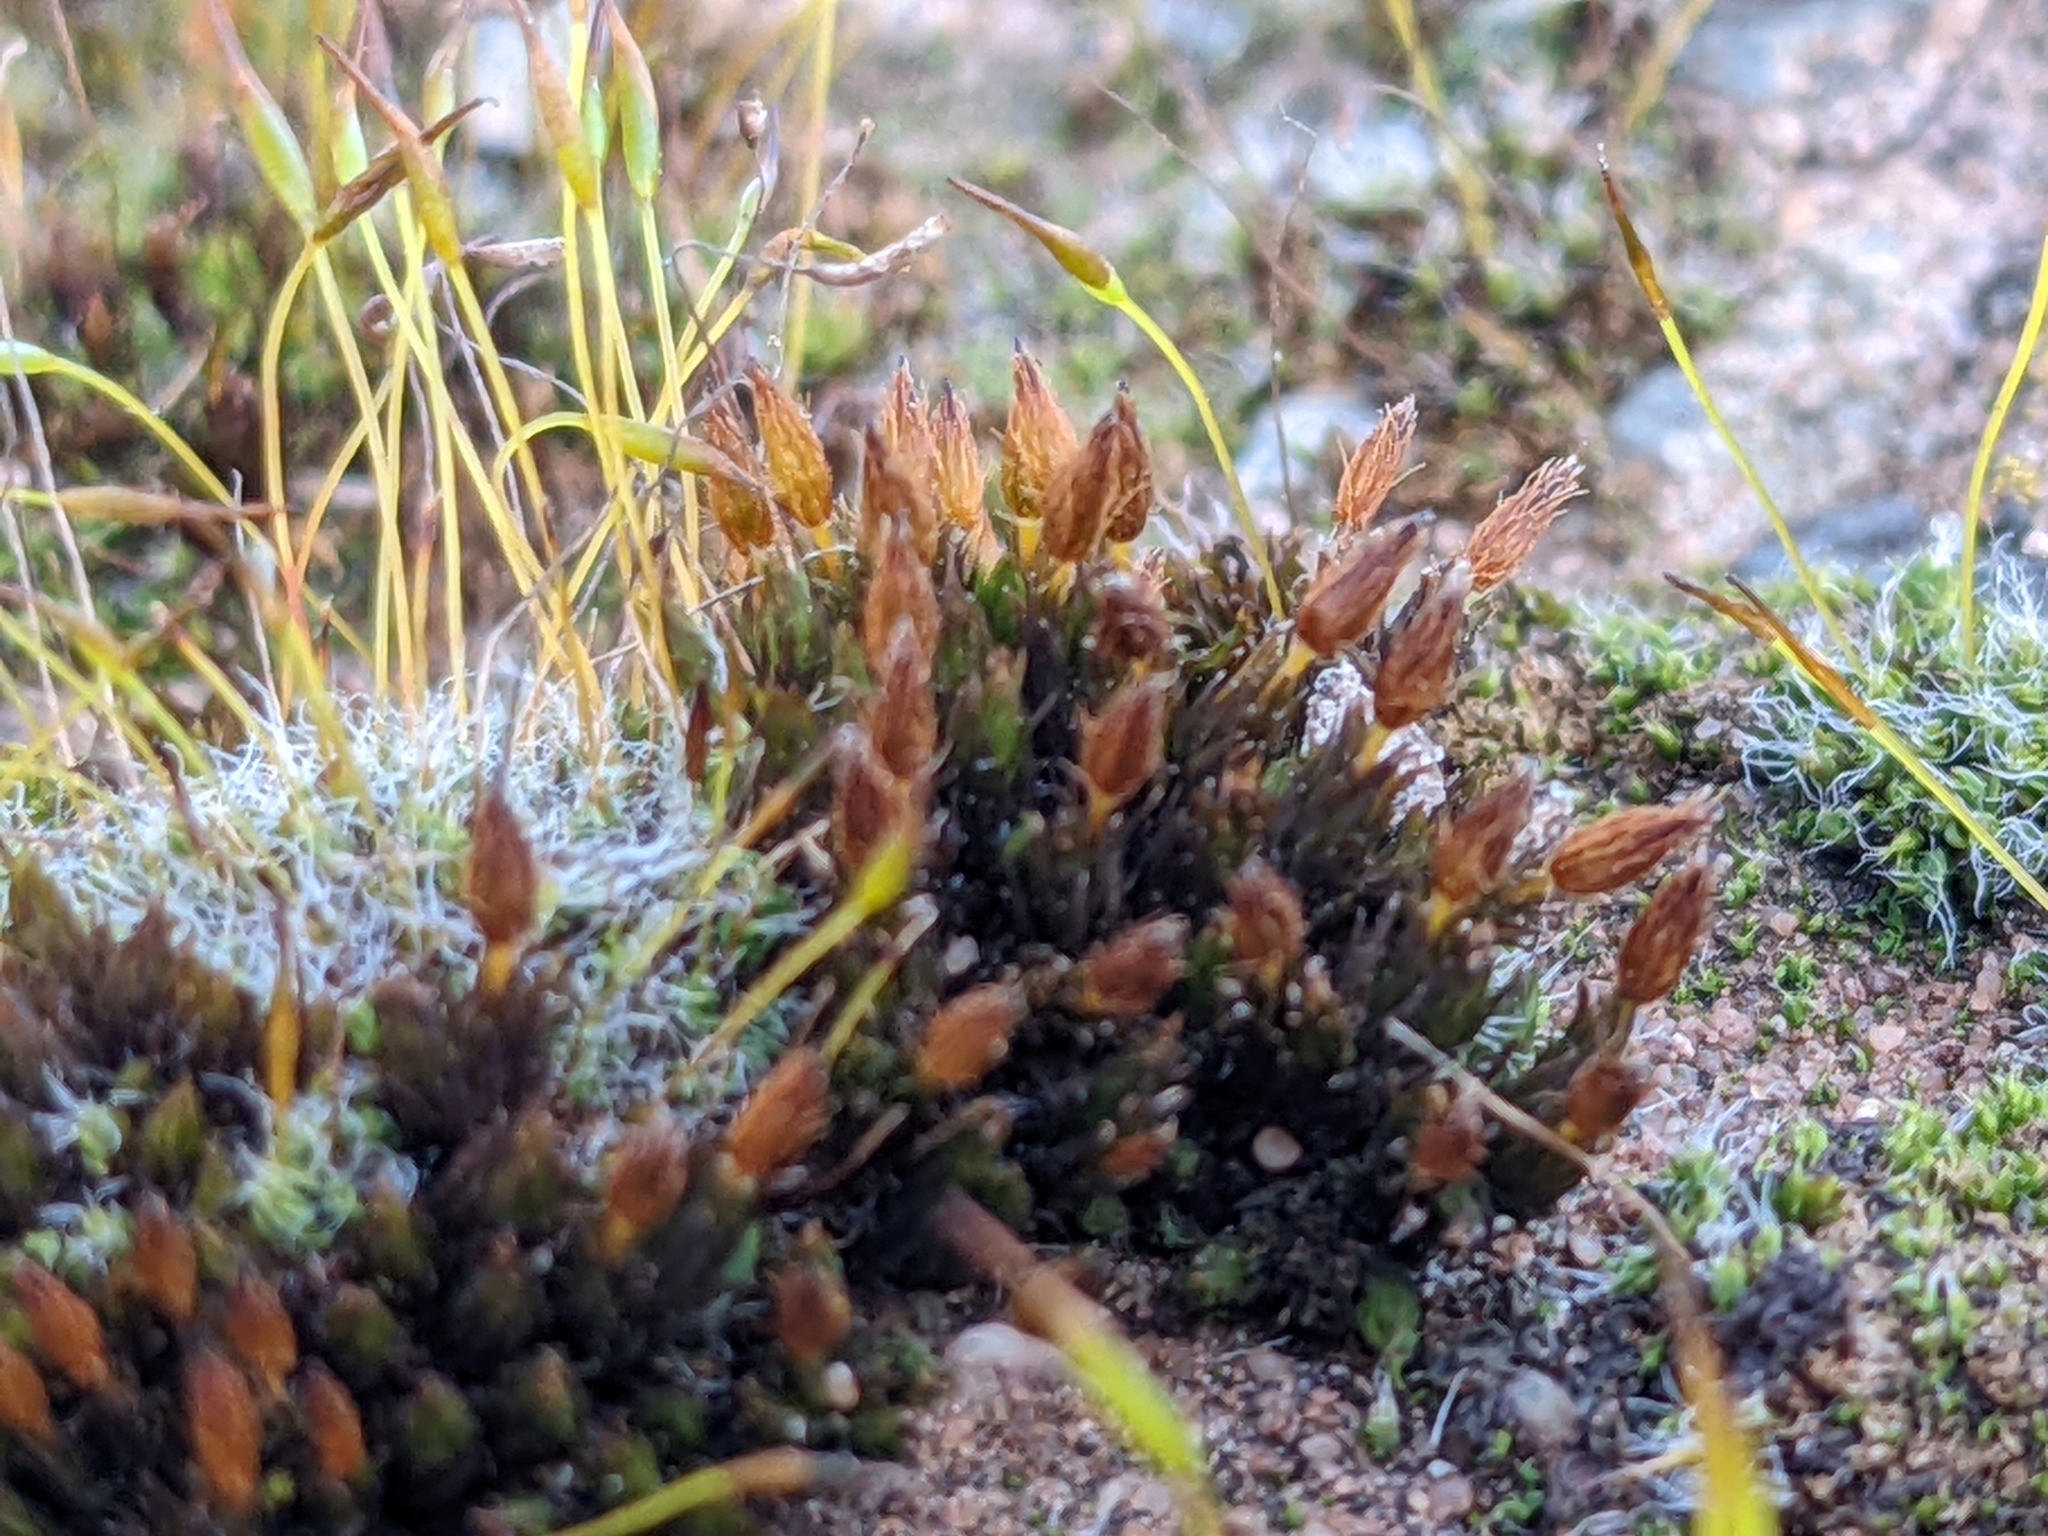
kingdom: Plantae
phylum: Bryophyta
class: Bryopsida
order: Orthotrichales
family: Orthotrichaceae
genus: Orthotrichum
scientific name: Orthotrichum anomalum
